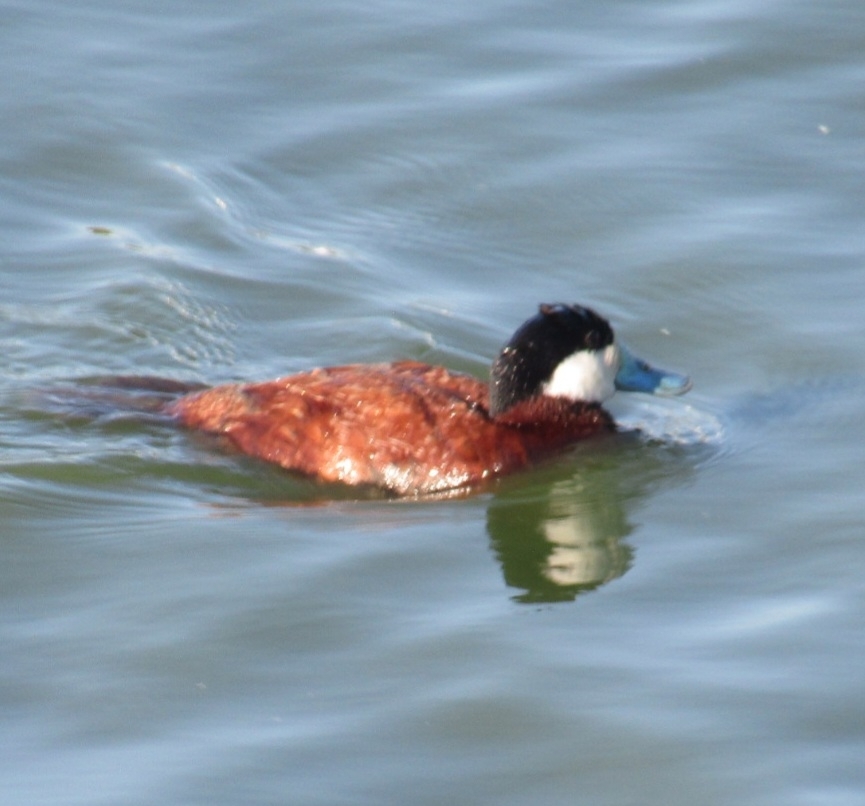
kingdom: Animalia
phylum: Chordata
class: Aves
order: Anseriformes
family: Anatidae
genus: Oxyura
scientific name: Oxyura jamaicensis
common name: Ruddy duck
